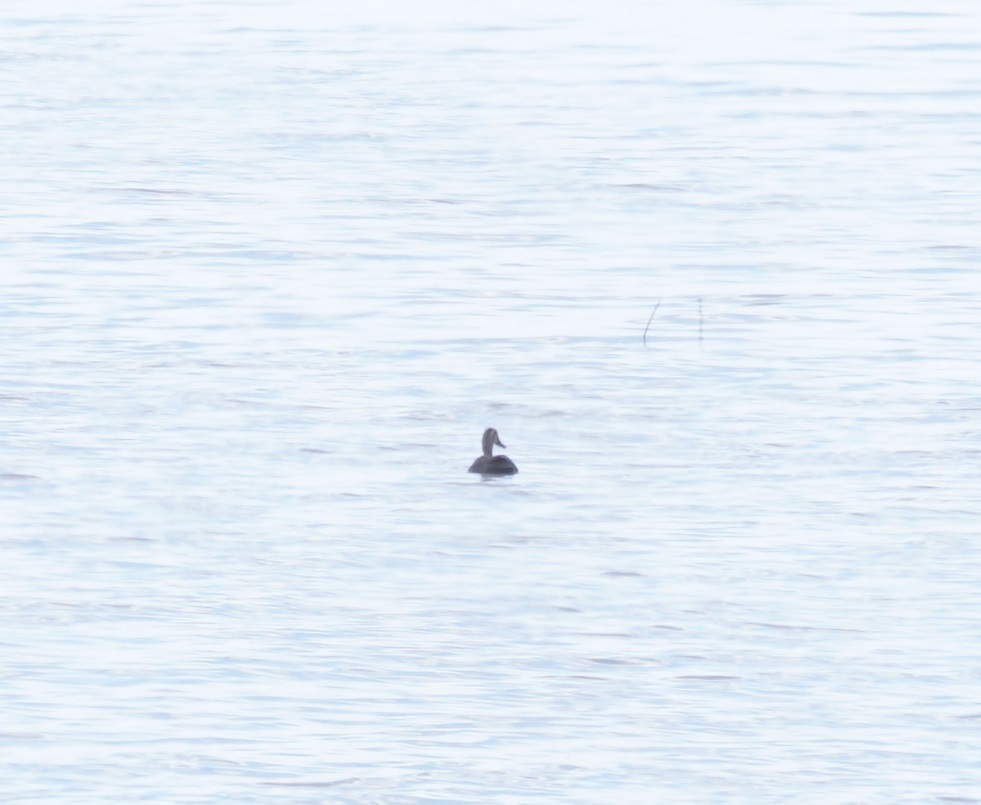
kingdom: Animalia
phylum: Chordata
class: Aves
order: Anseriformes
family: Anatidae
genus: Anas
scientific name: Anas superciliosa
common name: Pacific black duck
